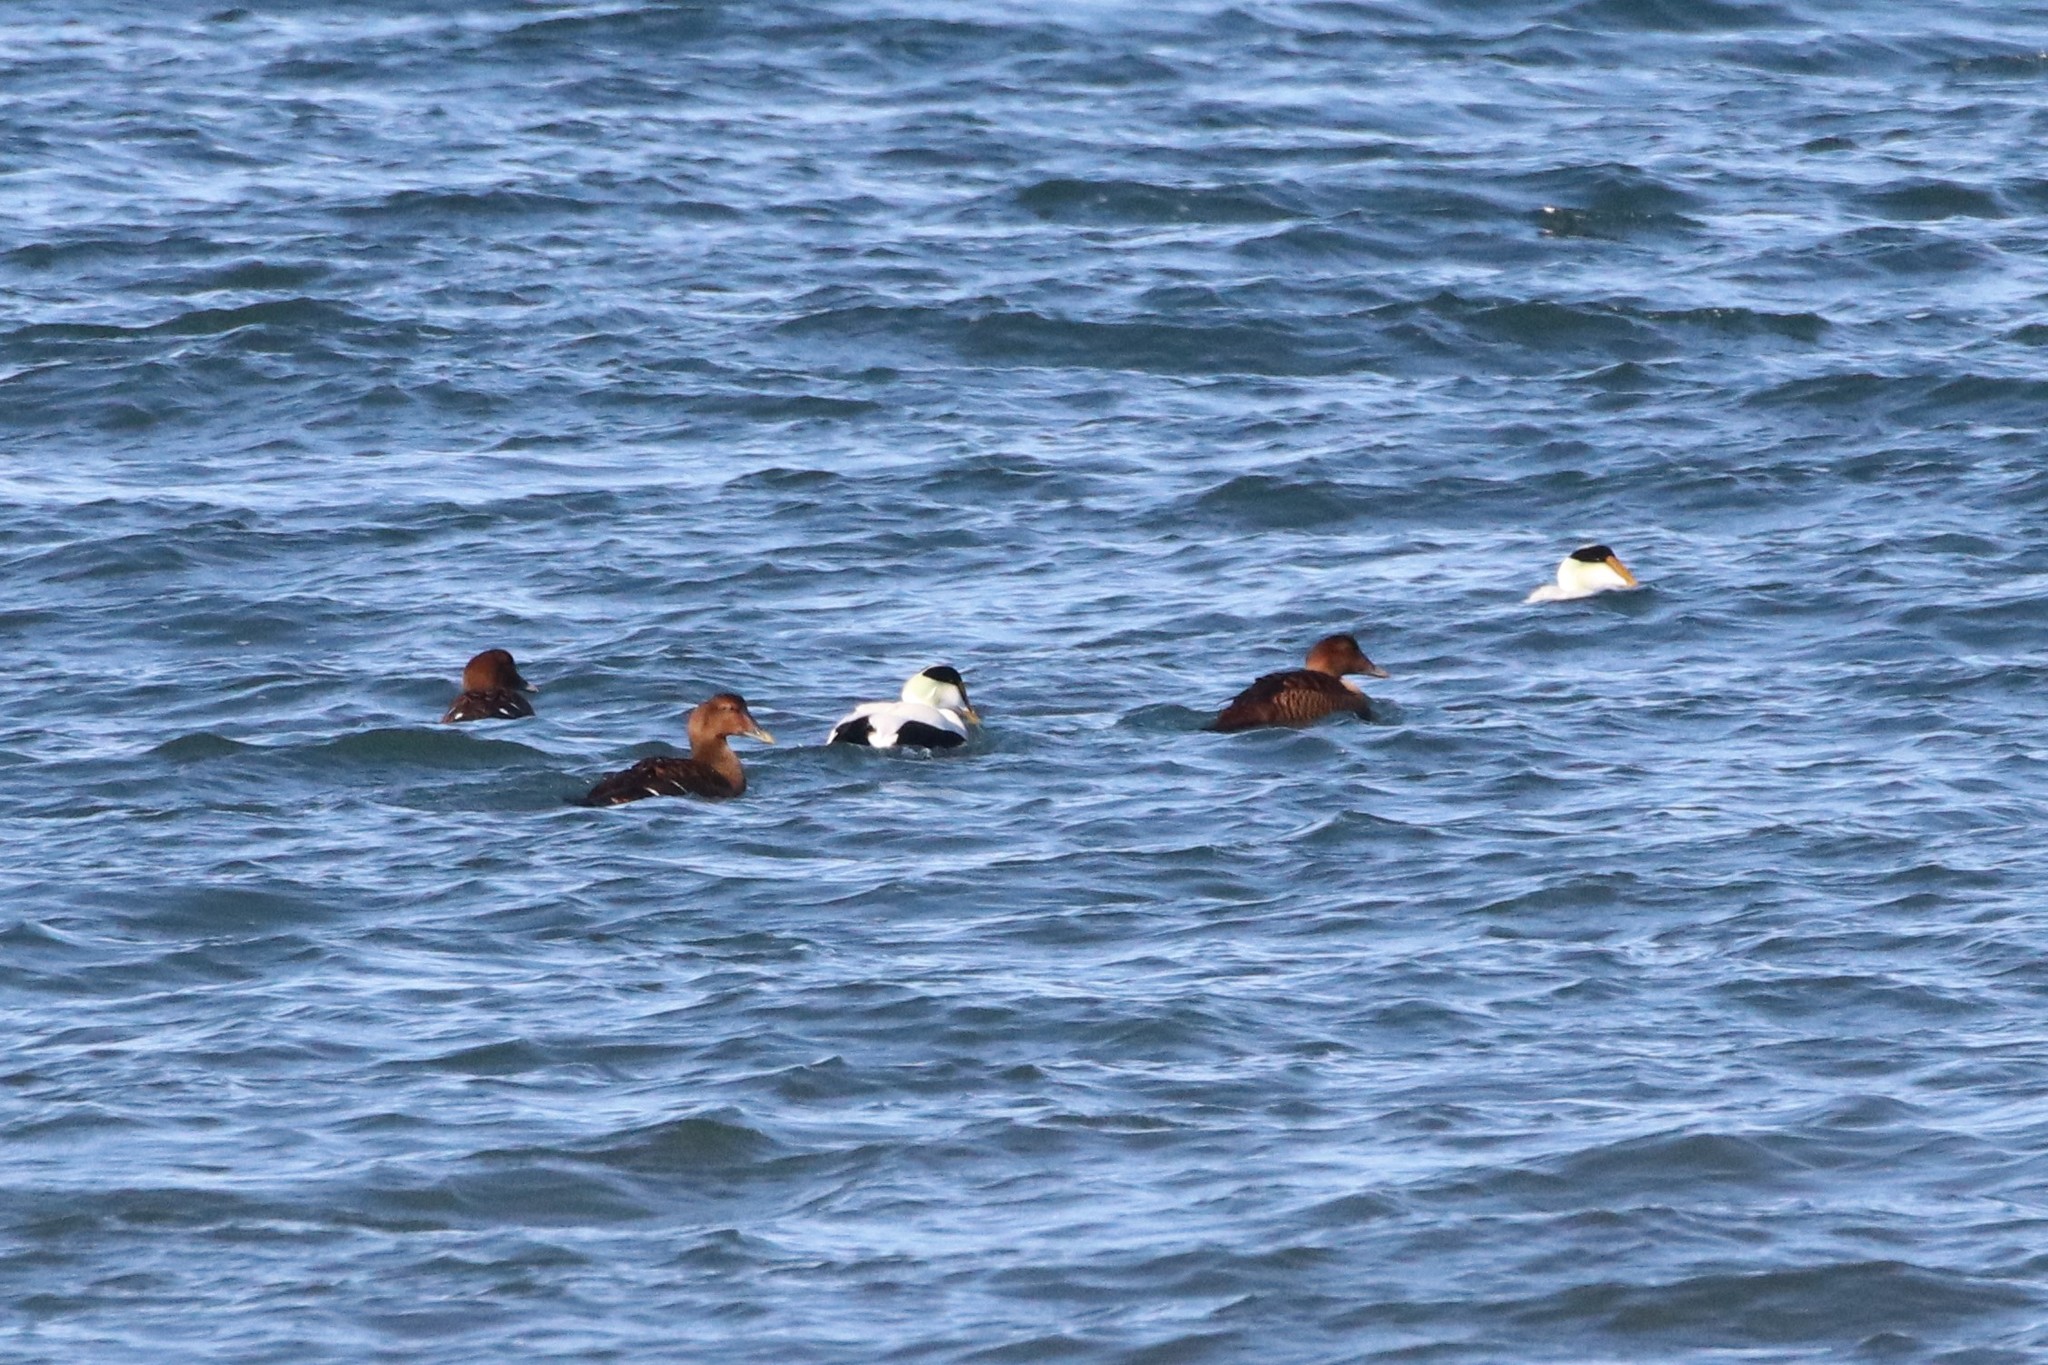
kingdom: Animalia
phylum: Chordata
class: Aves
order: Anseriformes
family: Anatidae
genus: Somateria
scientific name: Somateria mollissima
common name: Common eider
